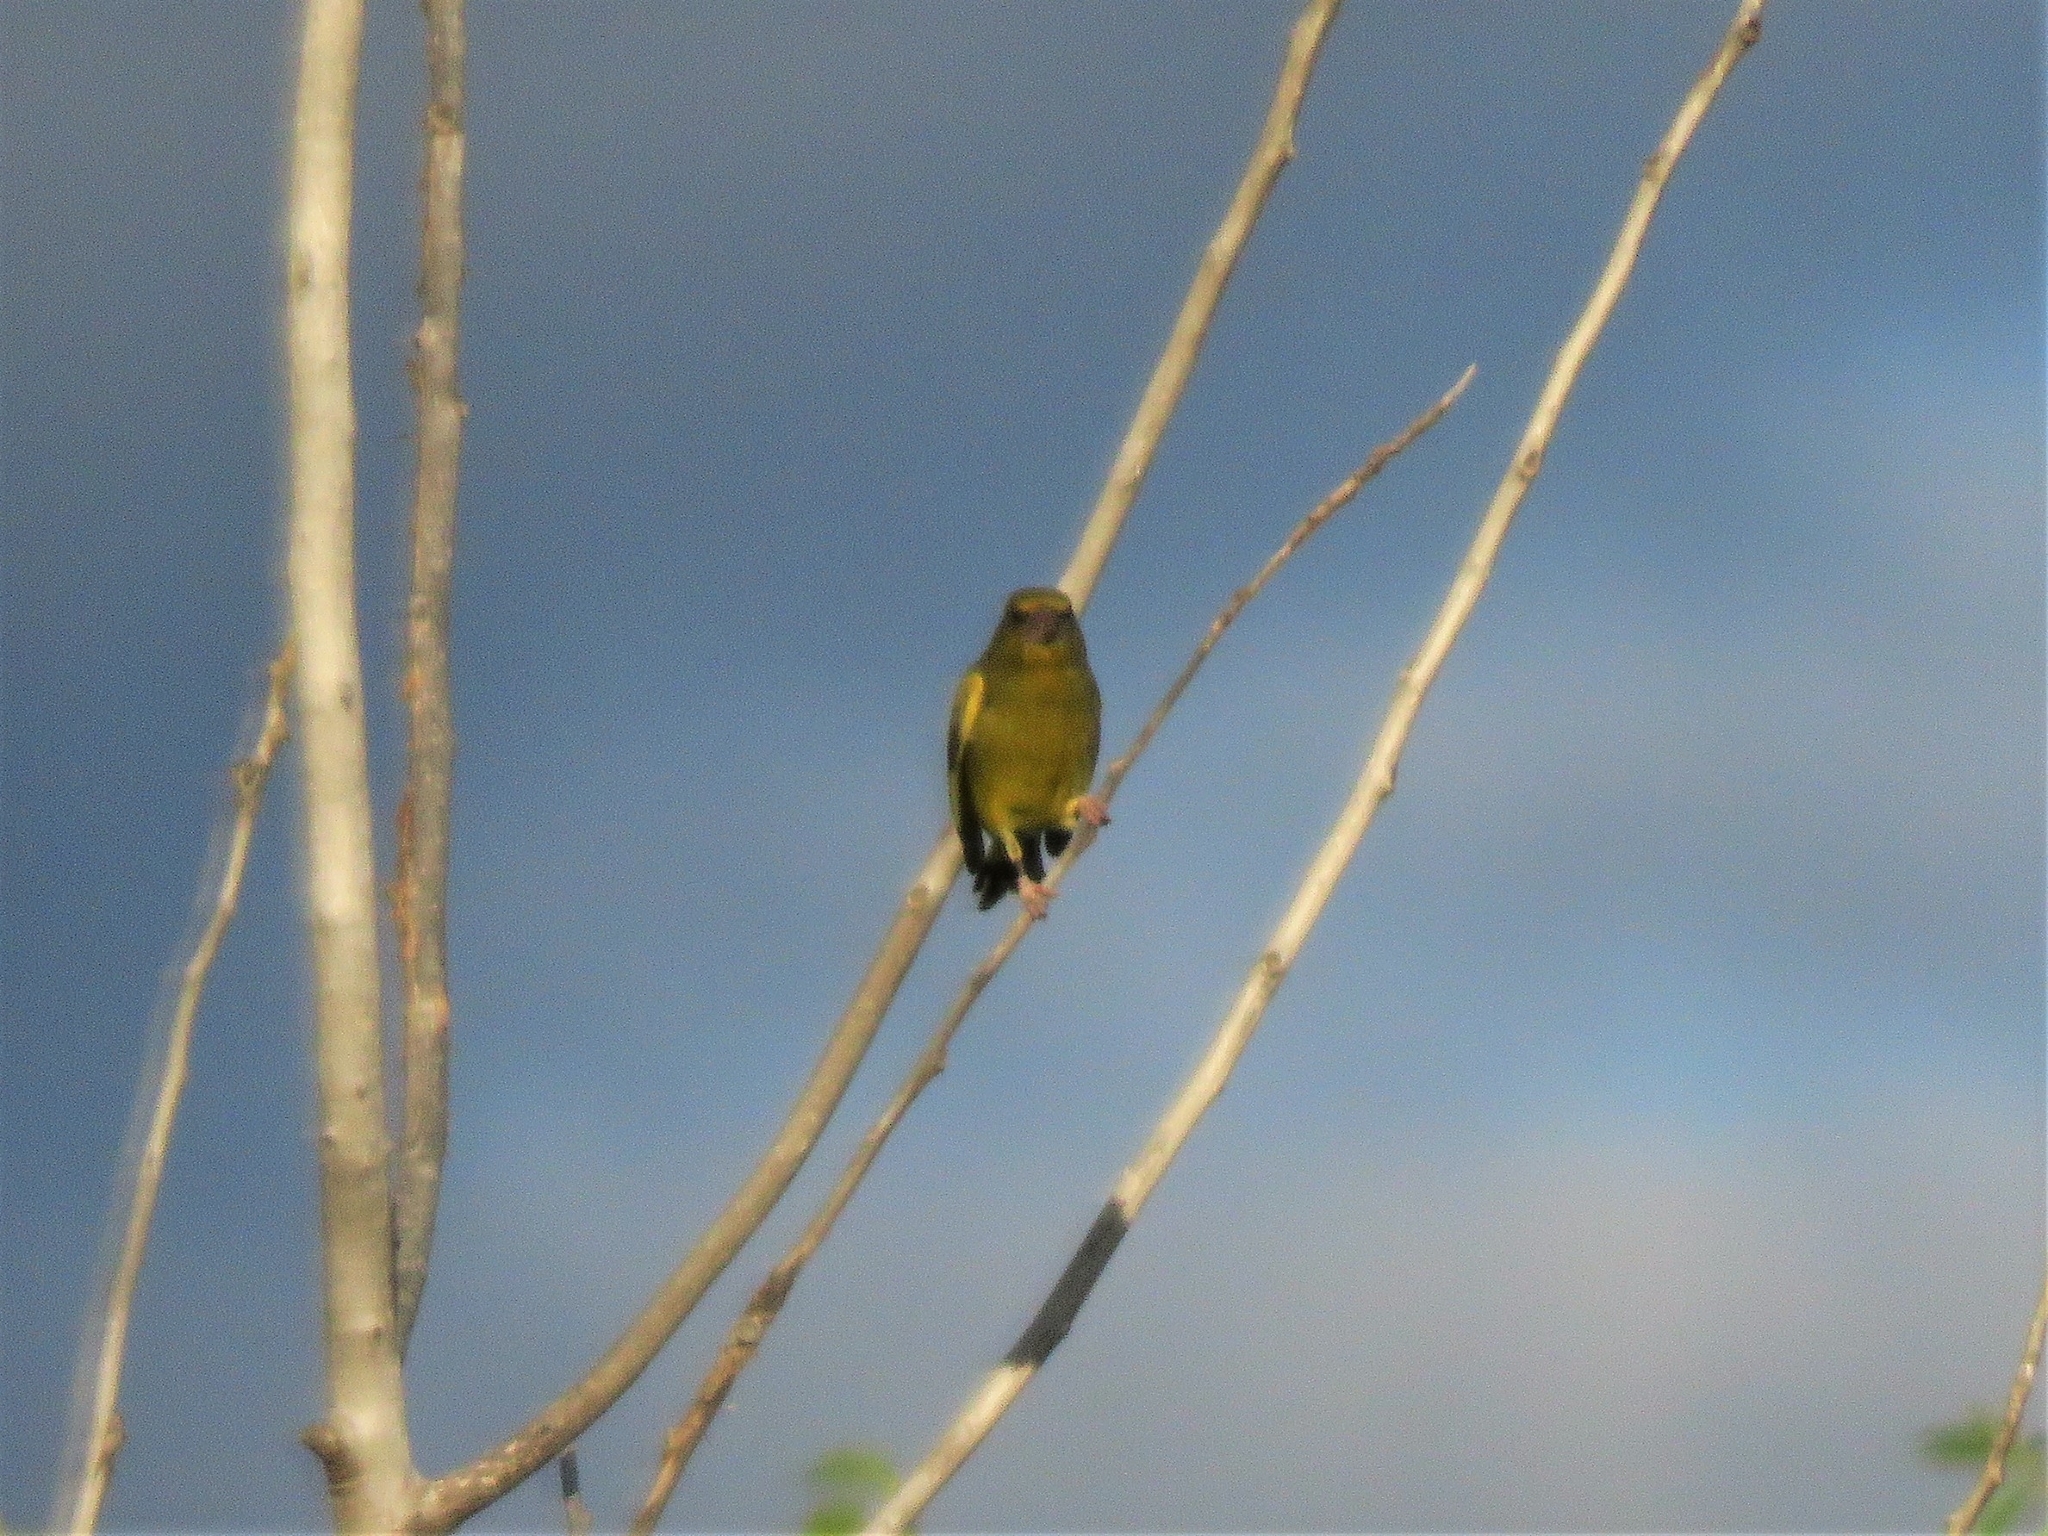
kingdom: Plantae
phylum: Tracheophyta
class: Liliopsida
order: Poales
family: Poaceae
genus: Chloris
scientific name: Chloris chloris
